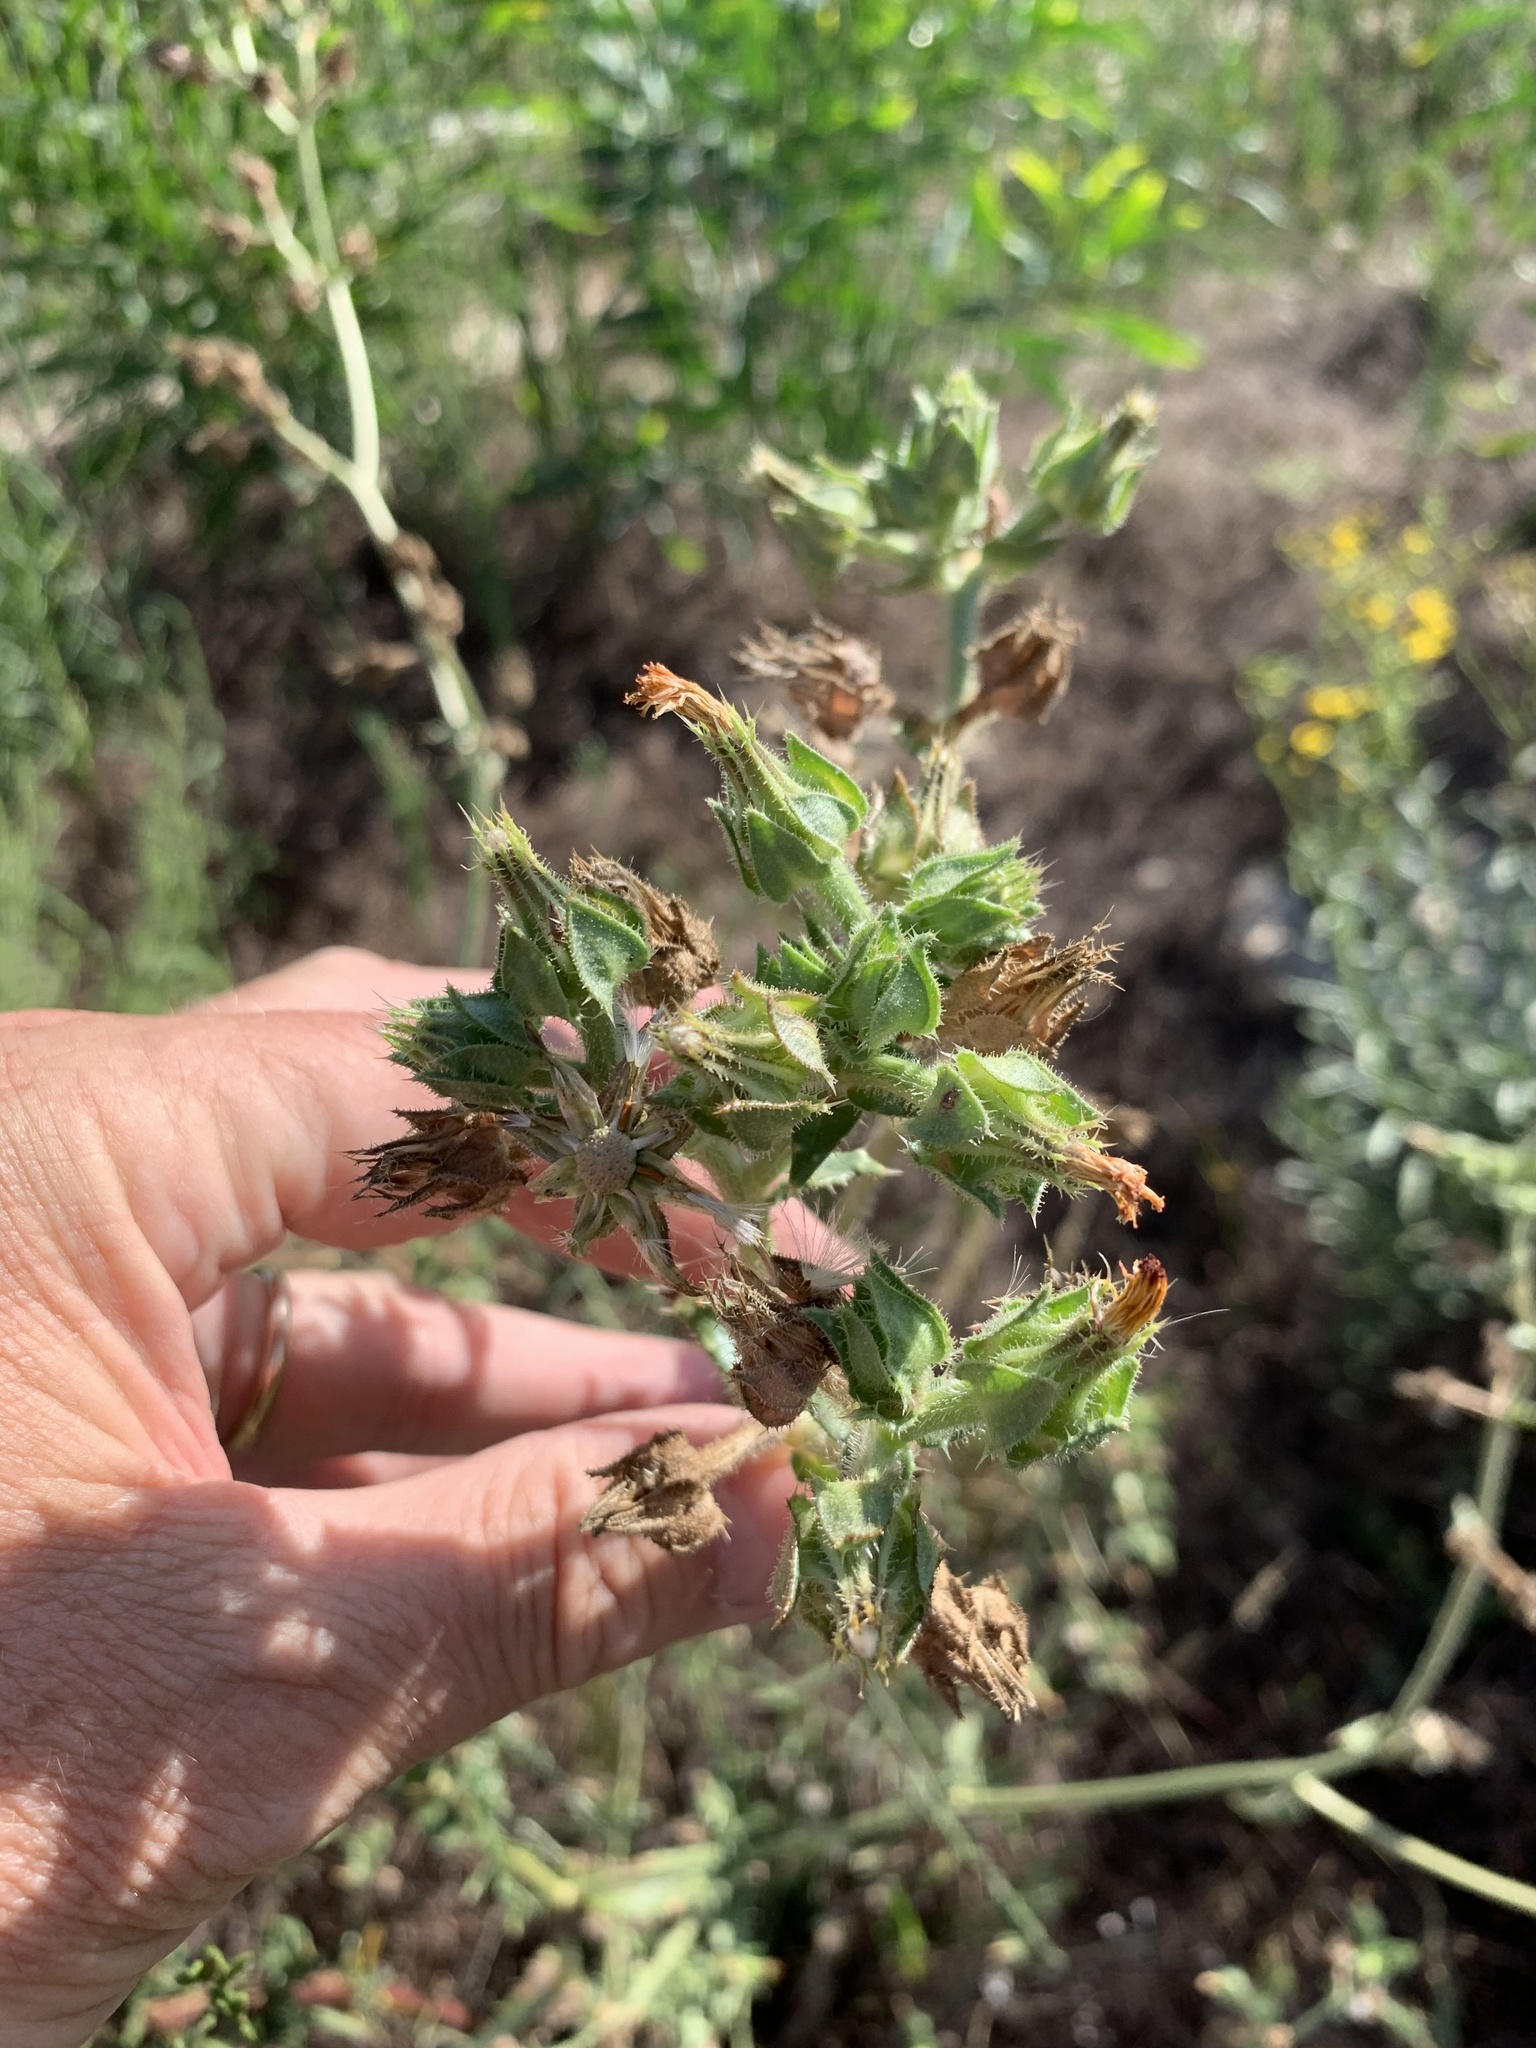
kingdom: Plantae
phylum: Tracheophyta
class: Magnoliopsida
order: Asterales
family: Asteraceae
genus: Helminthotheca
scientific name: Helminthotheca echioides
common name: Ox-tongue
